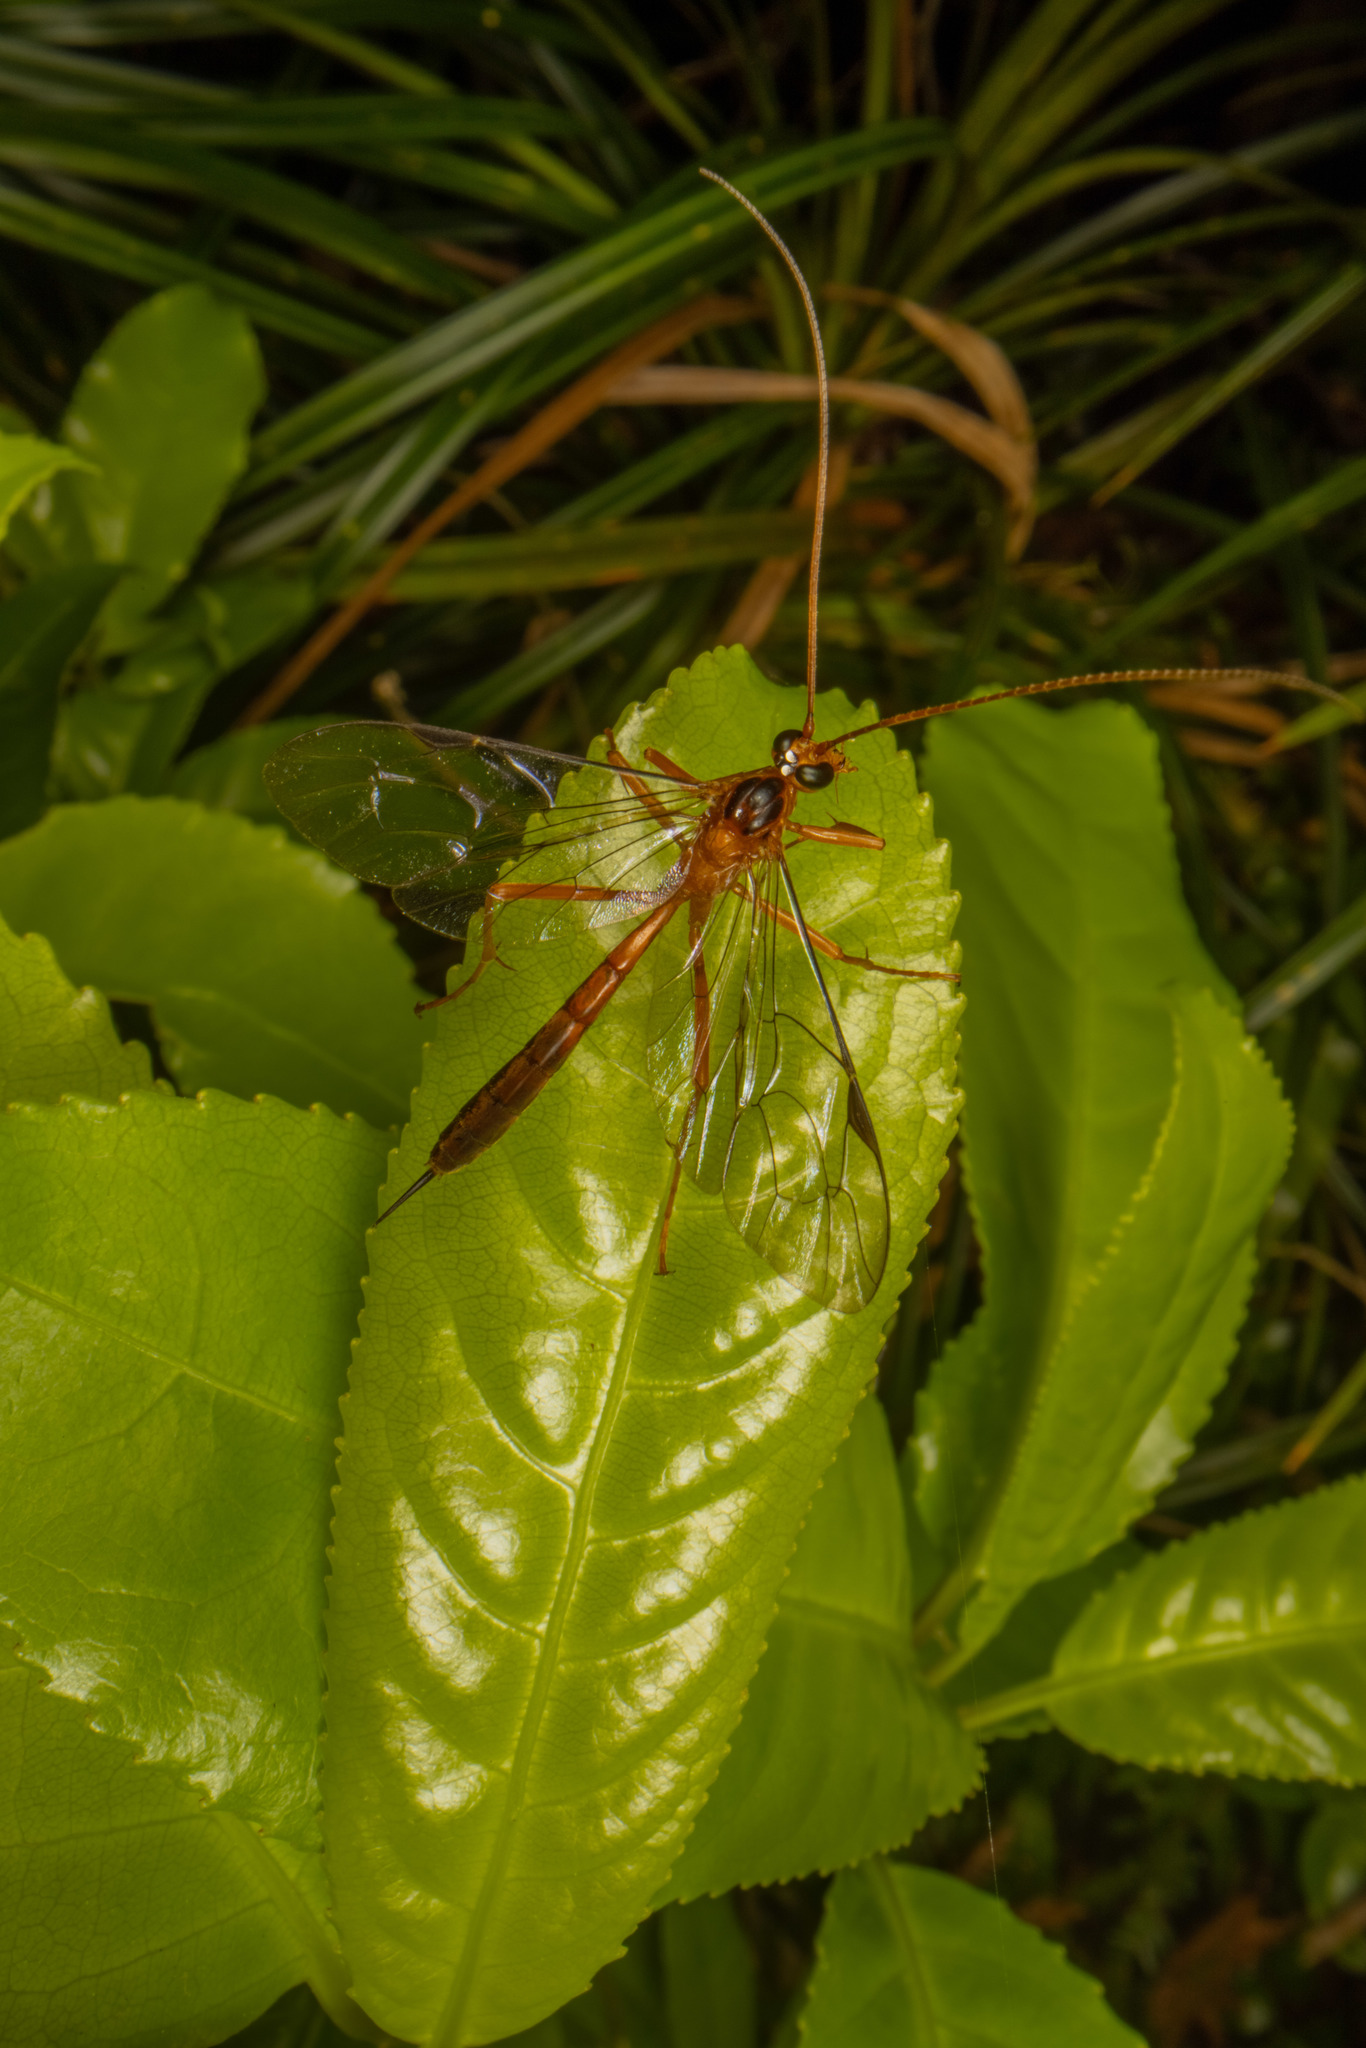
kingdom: Animalia
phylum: Arthropoda
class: Insecta
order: Hymenoptera
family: Ichneumonidae
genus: Netelia
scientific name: Netelia ephippiata
